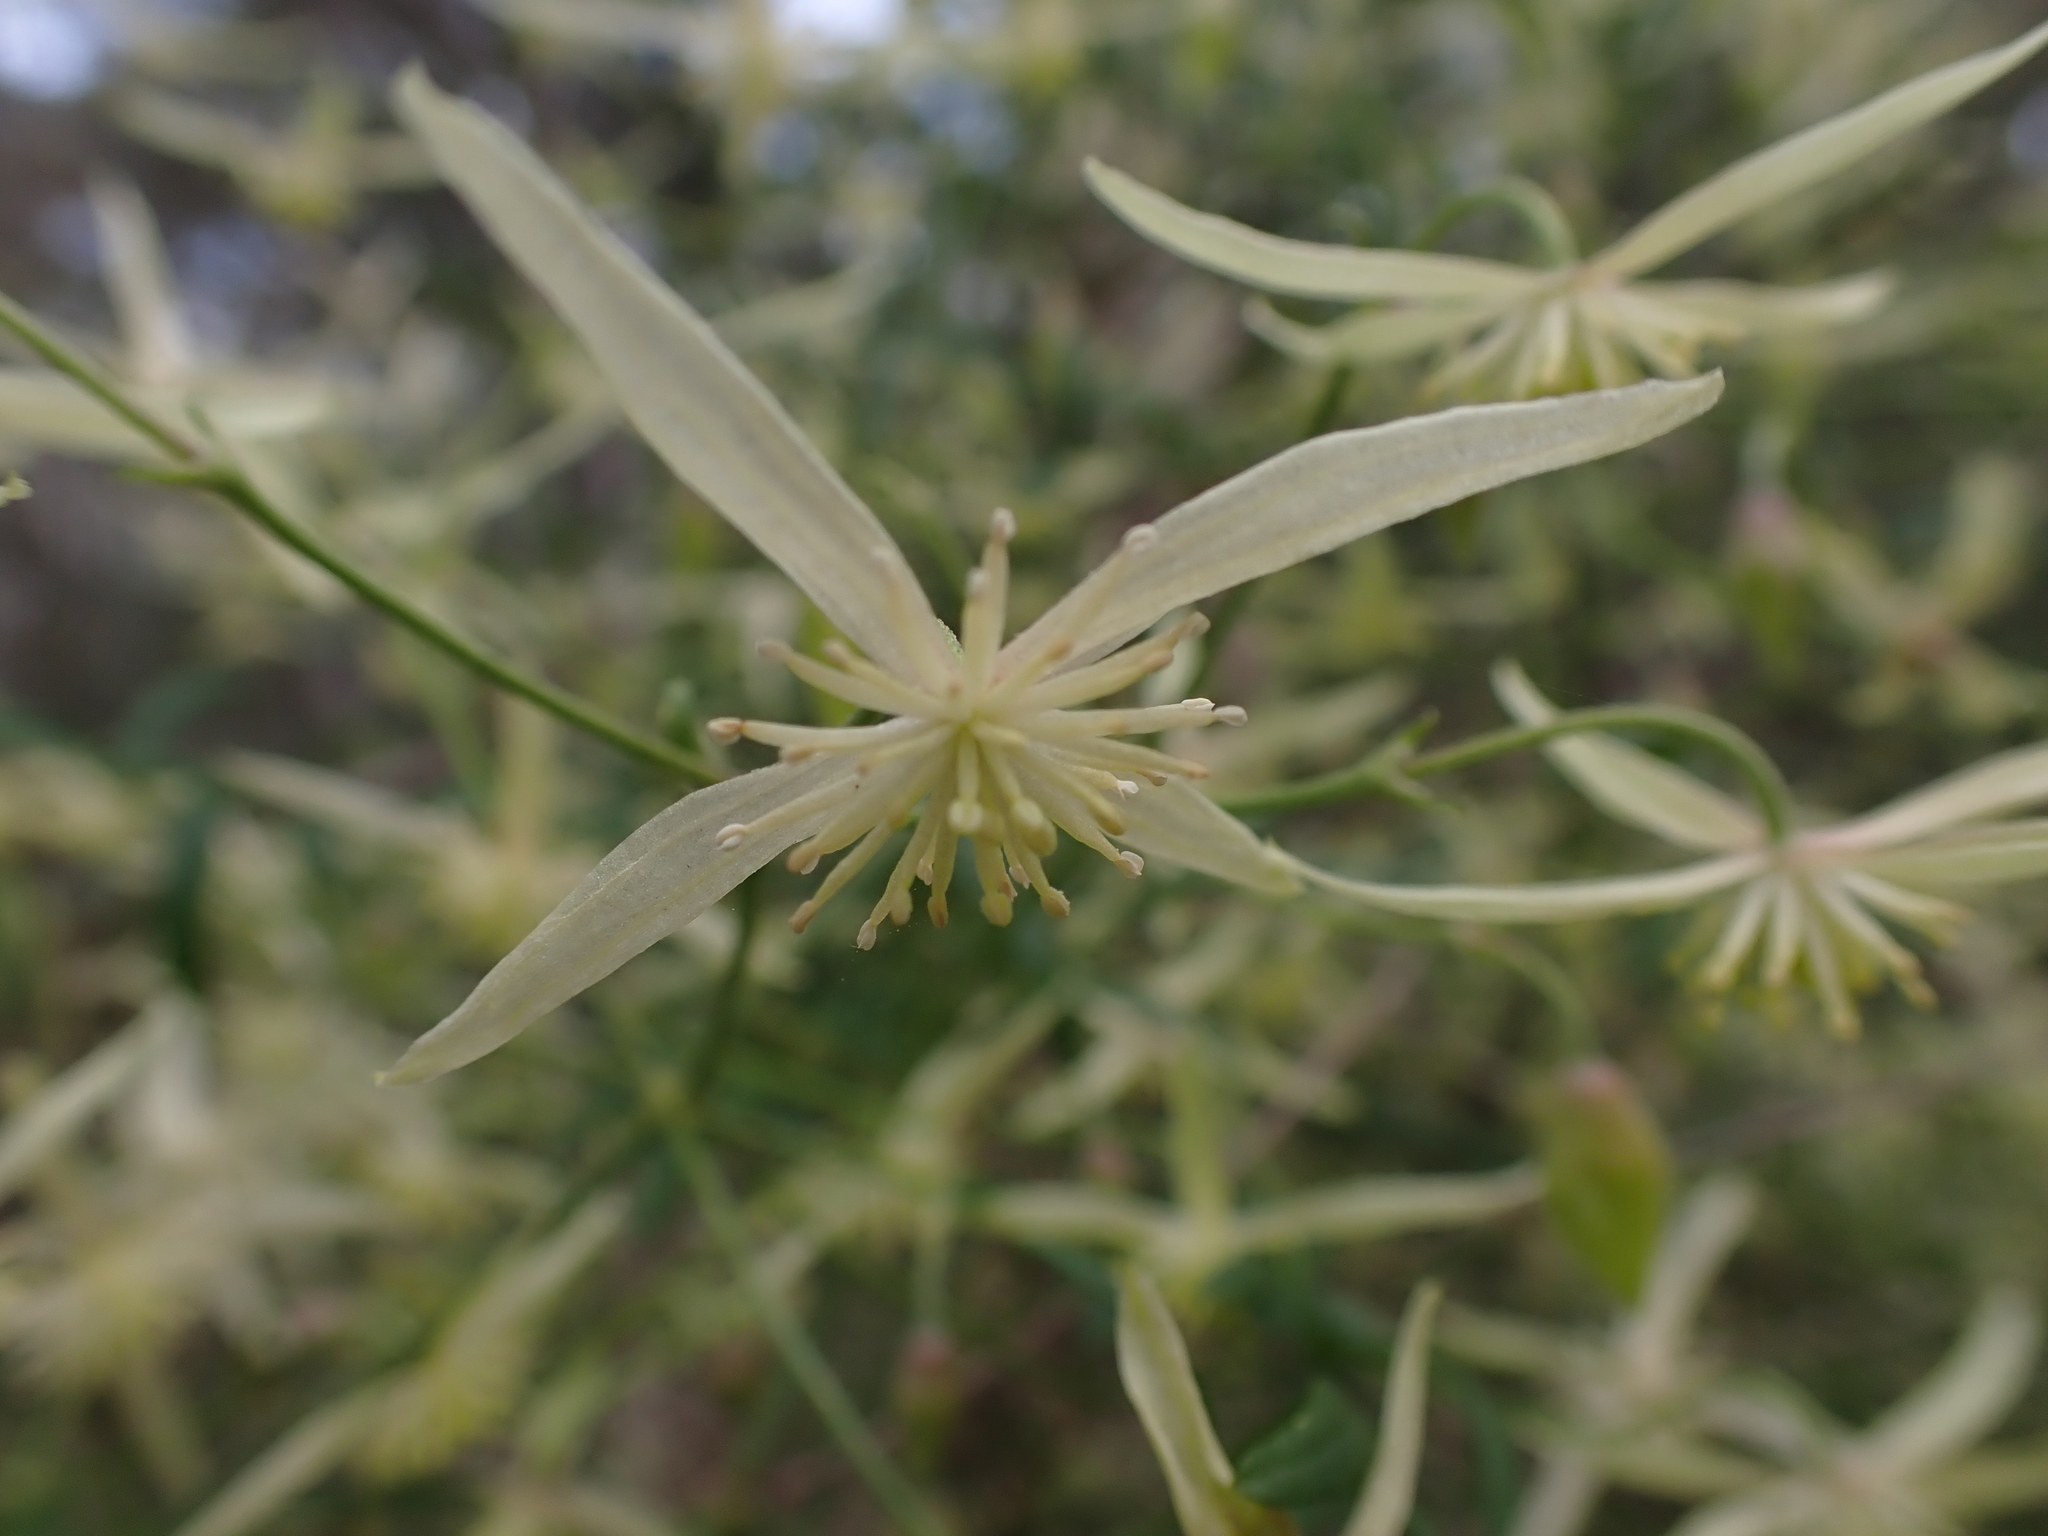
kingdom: Plantae
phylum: Tracheophyta
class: Magnoliopsida
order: Ranunculales
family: Ranunculaceae
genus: Clematis
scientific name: Clematis microphylla
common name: Headachevine
